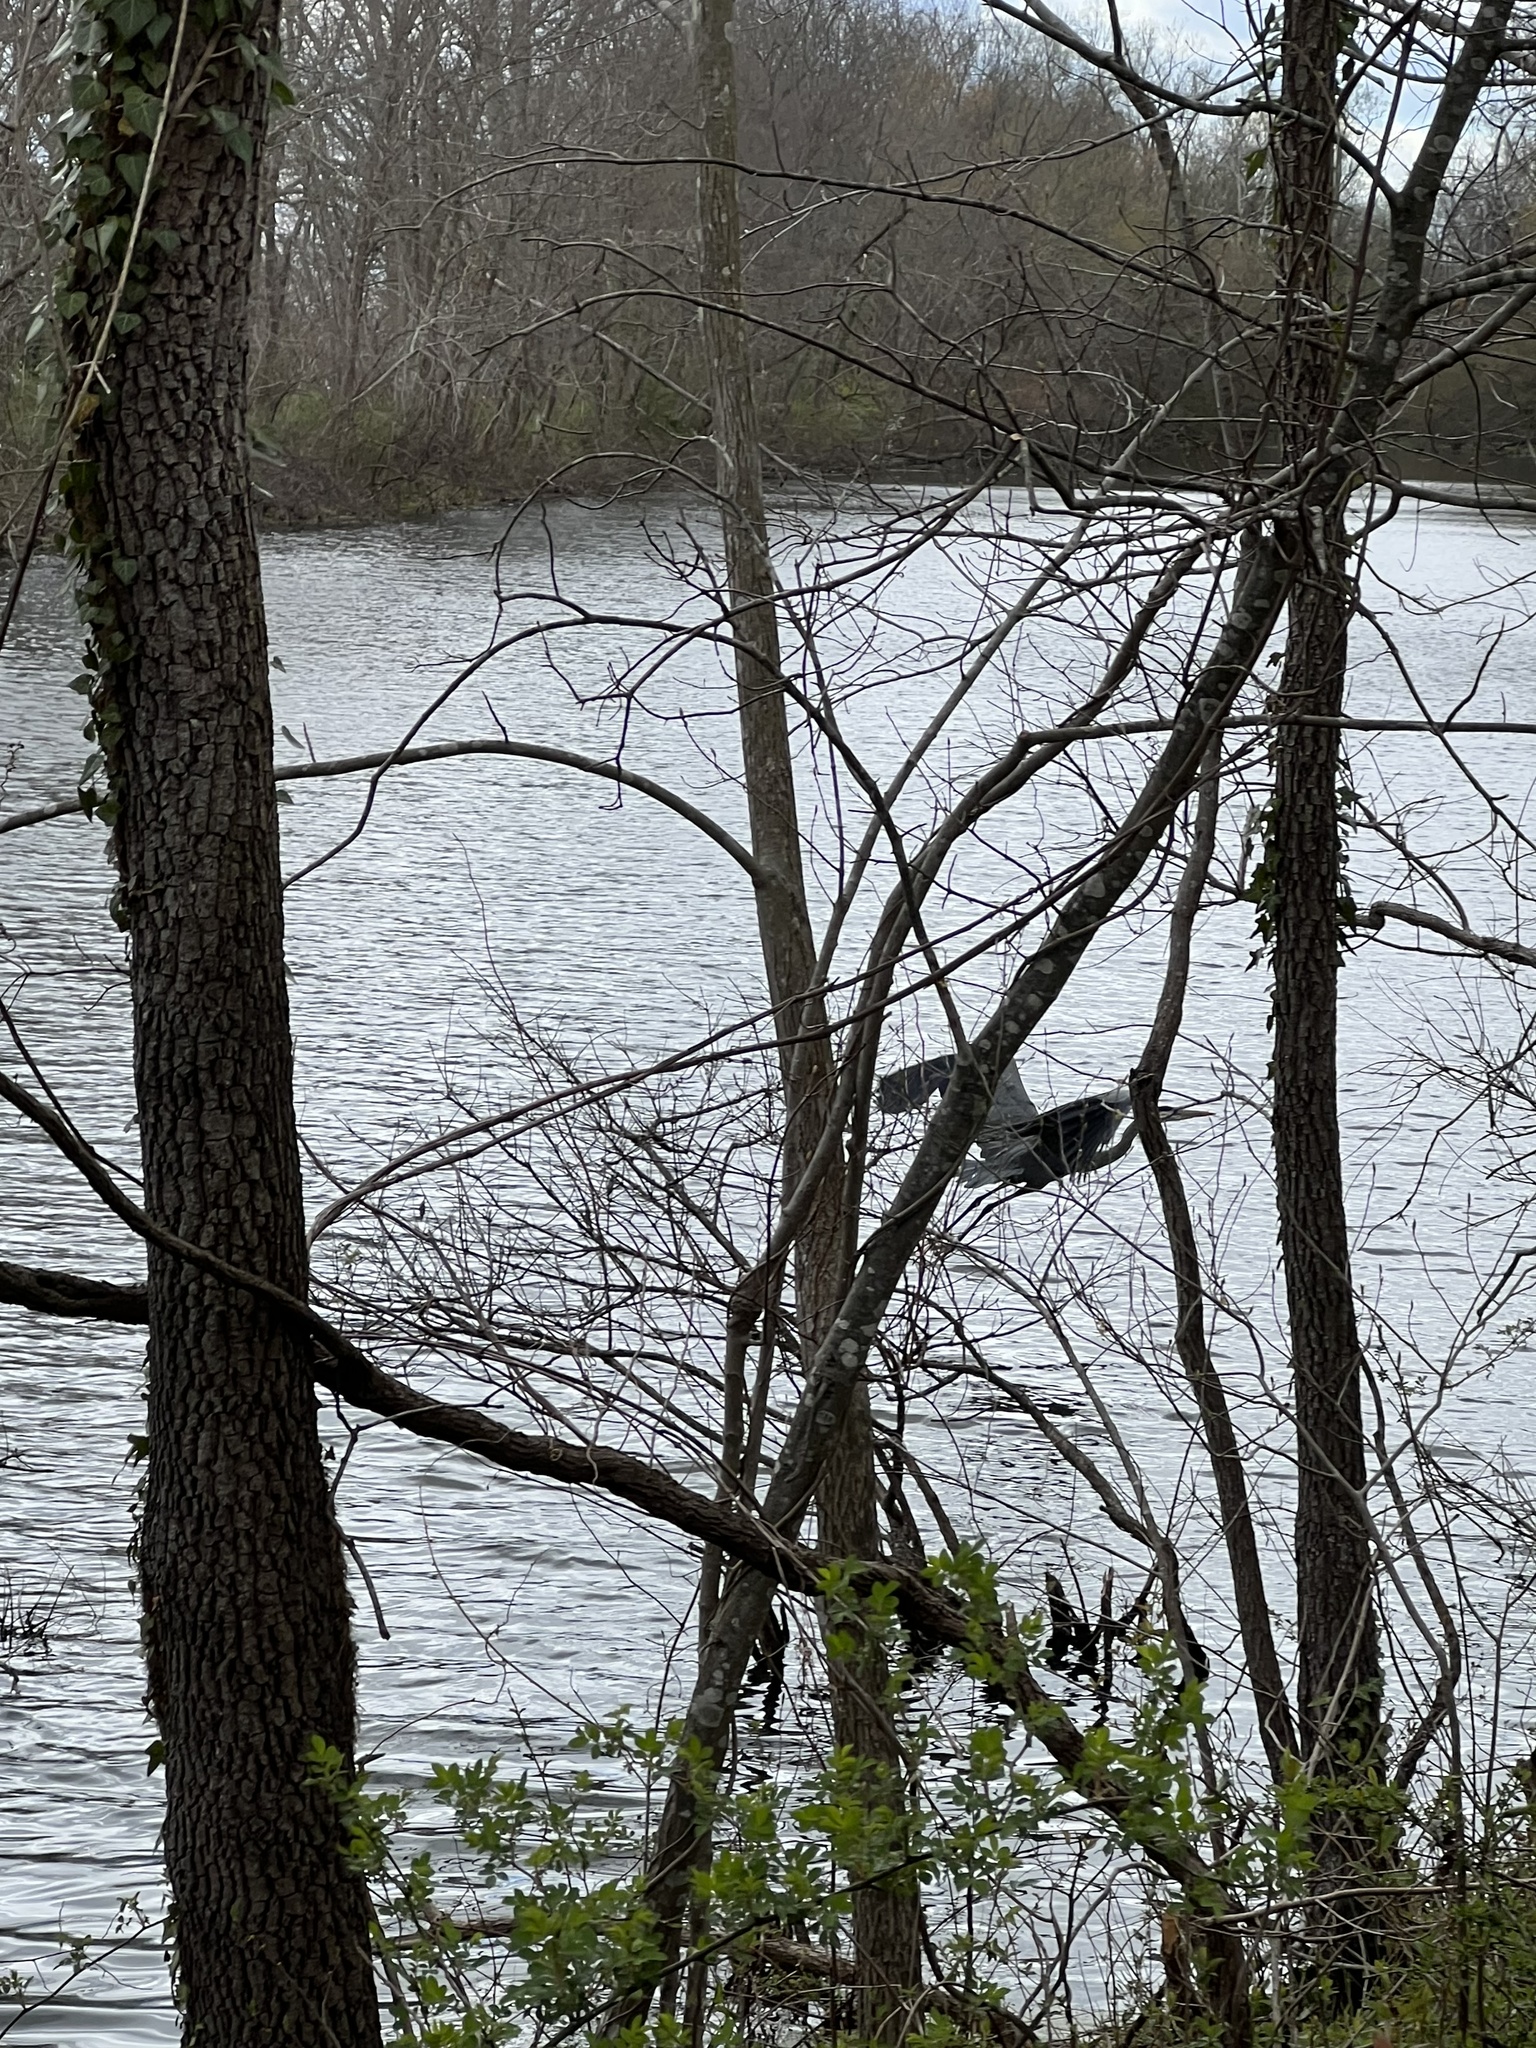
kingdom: Animalia
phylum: Chordata
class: Aves
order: Pelecaniformes
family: Ardeidae
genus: Ardea
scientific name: Ardea herodias
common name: Great blue heron
